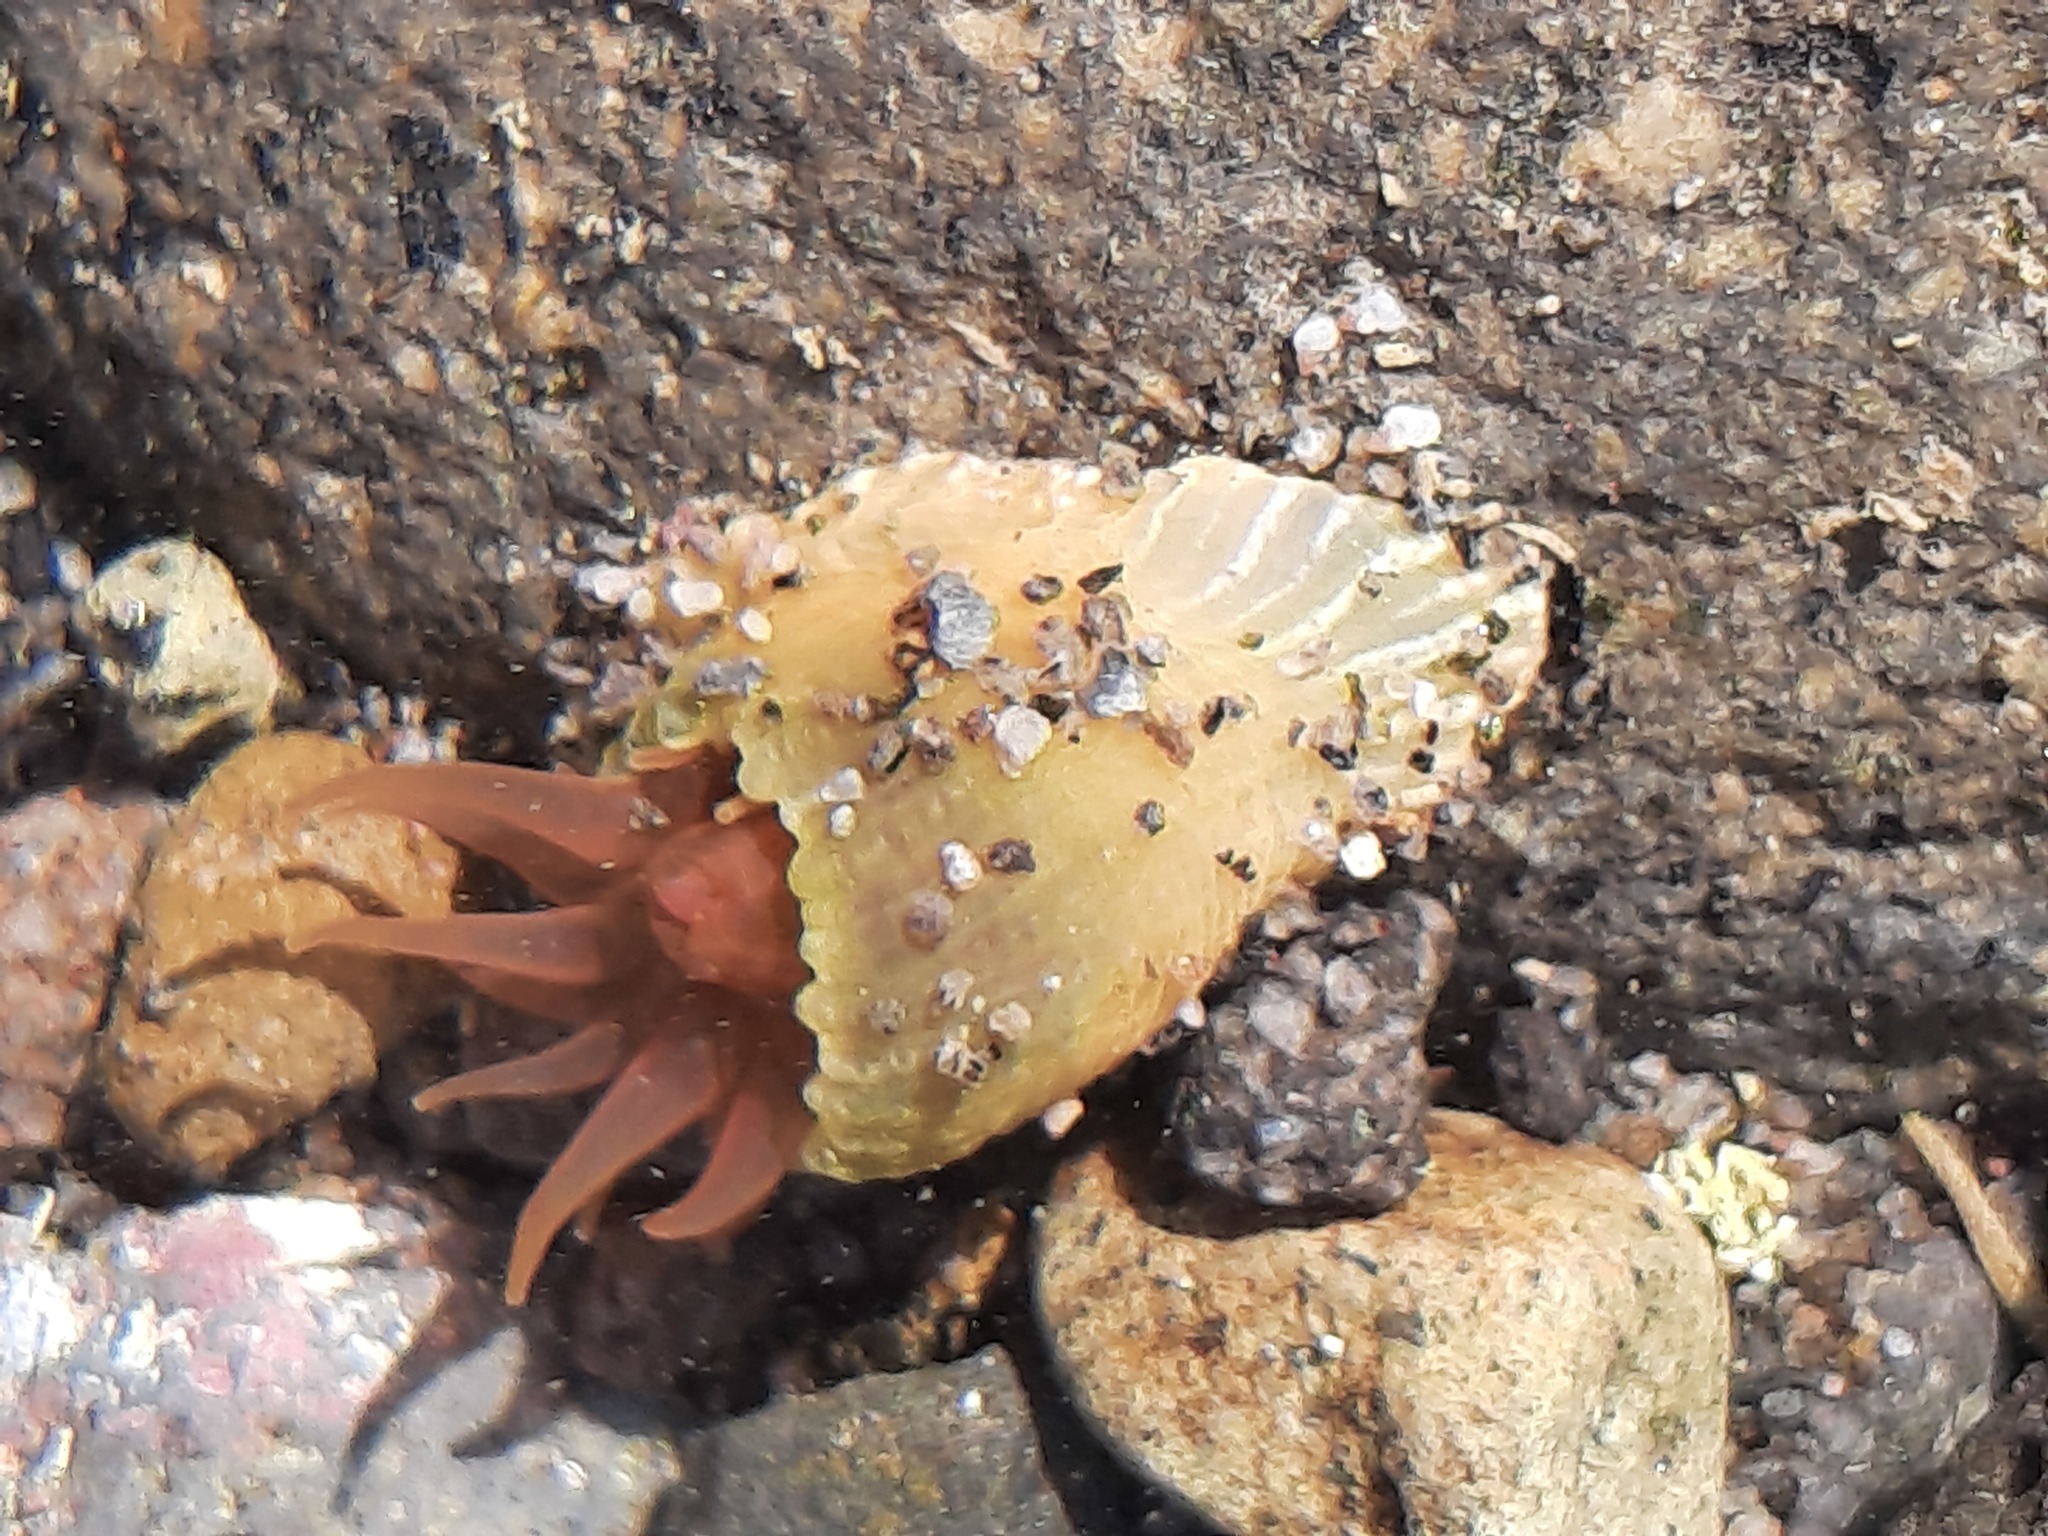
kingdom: Animalia
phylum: Cnidaria
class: Anthozoa
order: Actiniaria
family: Actiniidae
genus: Isactinia
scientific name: Isactinia olivacea
